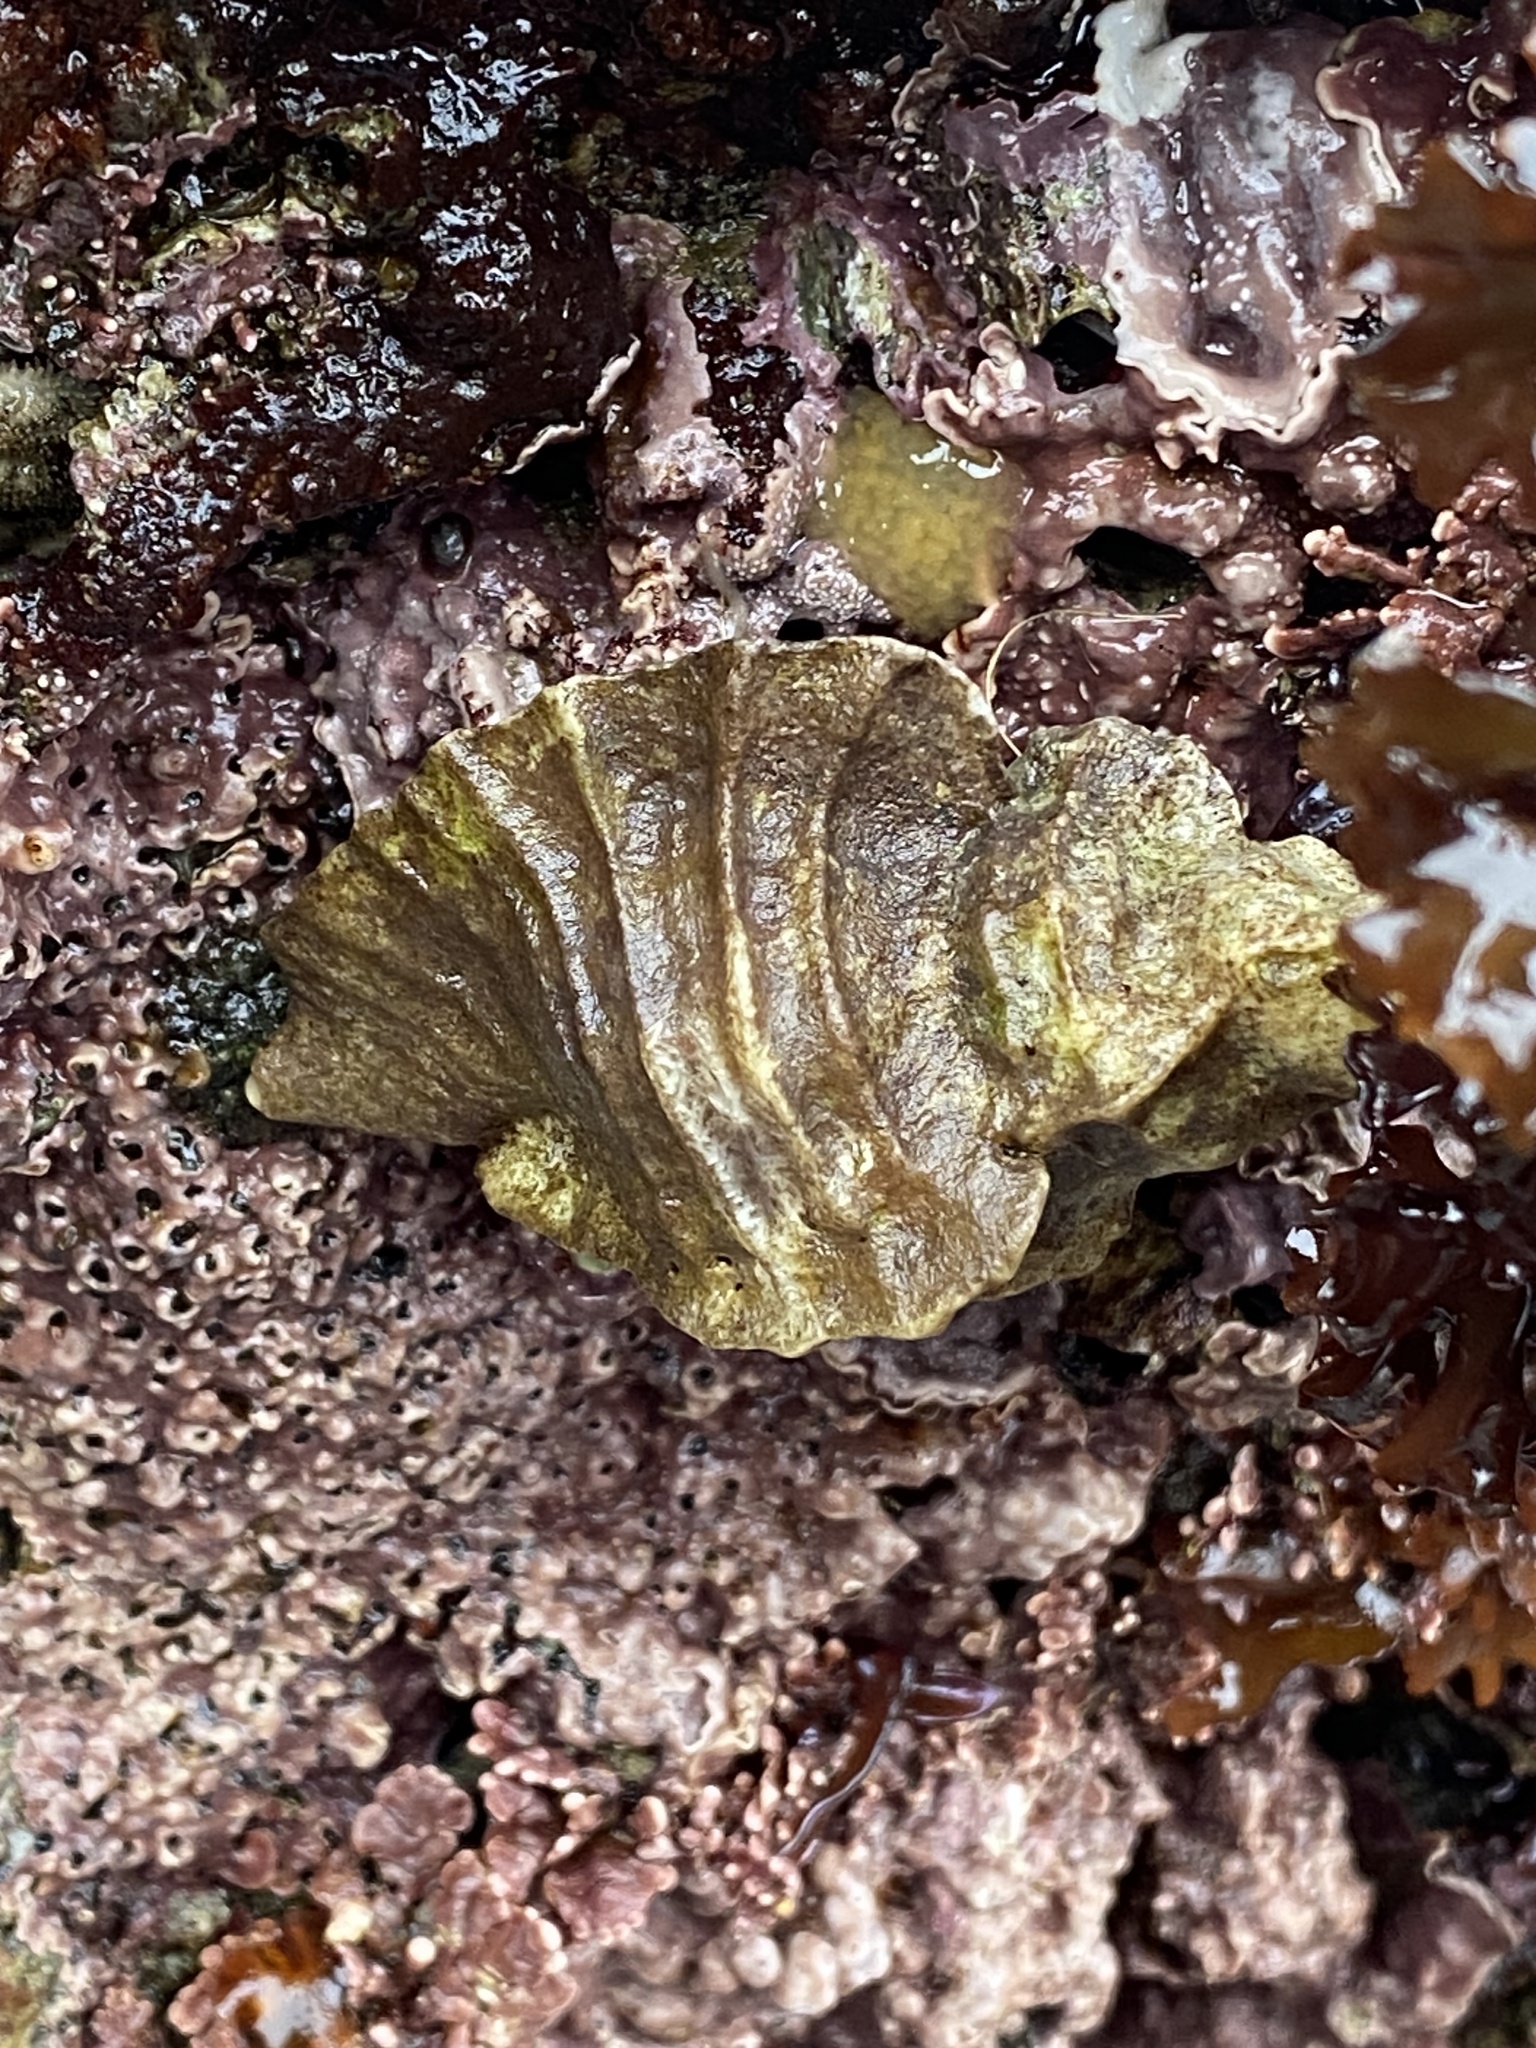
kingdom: Animalia
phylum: Mollusca
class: Gastropoda
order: Neogastropoda
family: Muricidae
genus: Ceratostoma
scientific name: Ceratostoma foliatum
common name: Foliate thorn purpura
